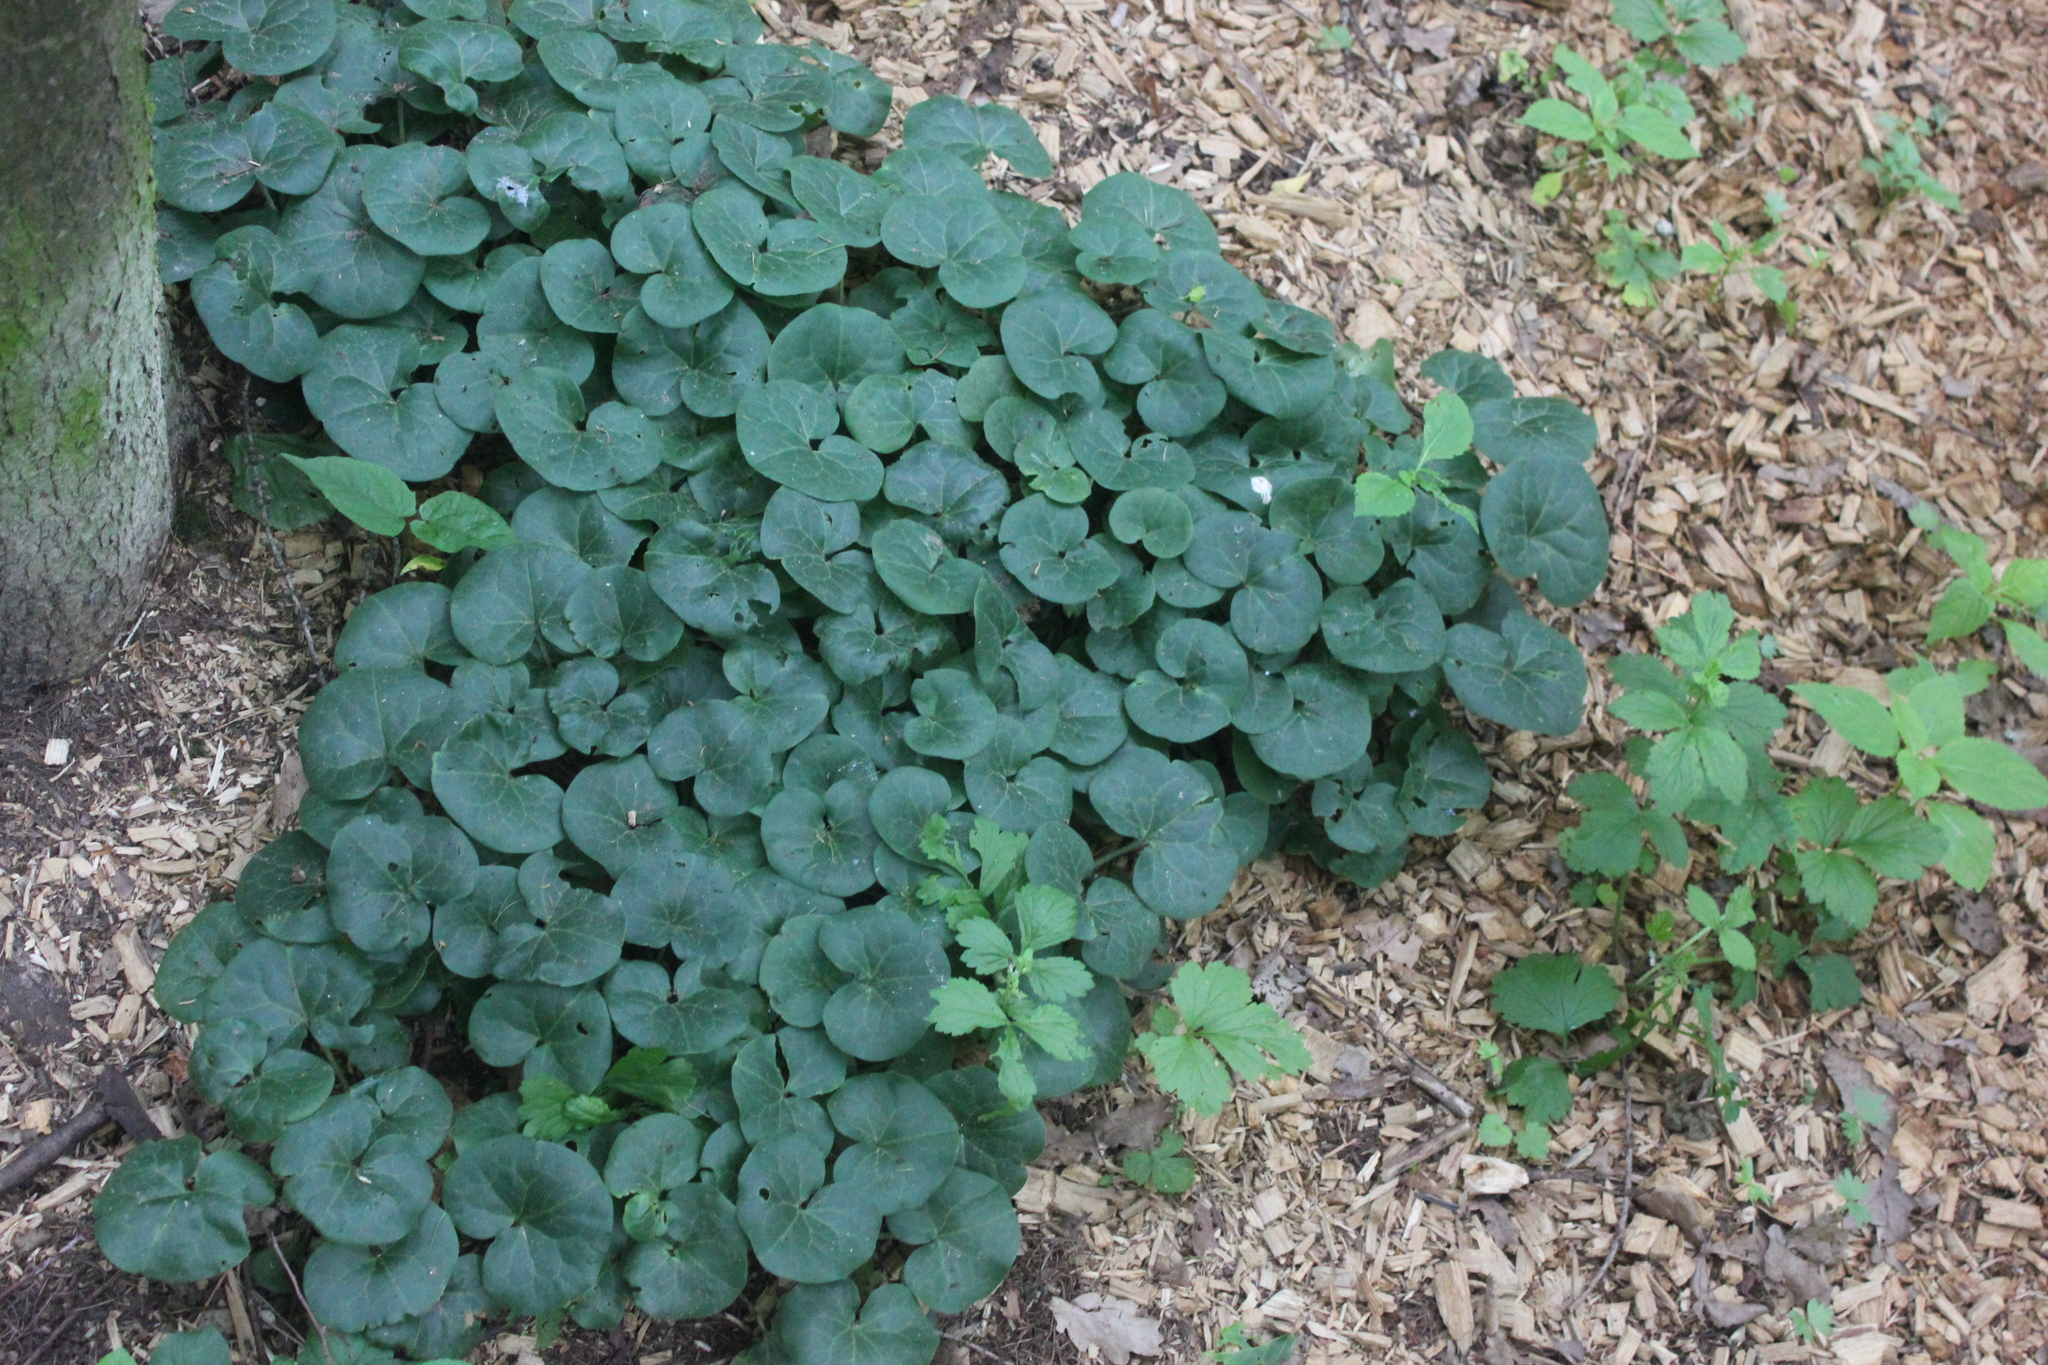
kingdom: Plantae
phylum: Tracheophyta
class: Magnoliopsida
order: Piperales
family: Aristolochiaceae
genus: Asarum
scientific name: Asarum europaeum
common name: Asarabacca
